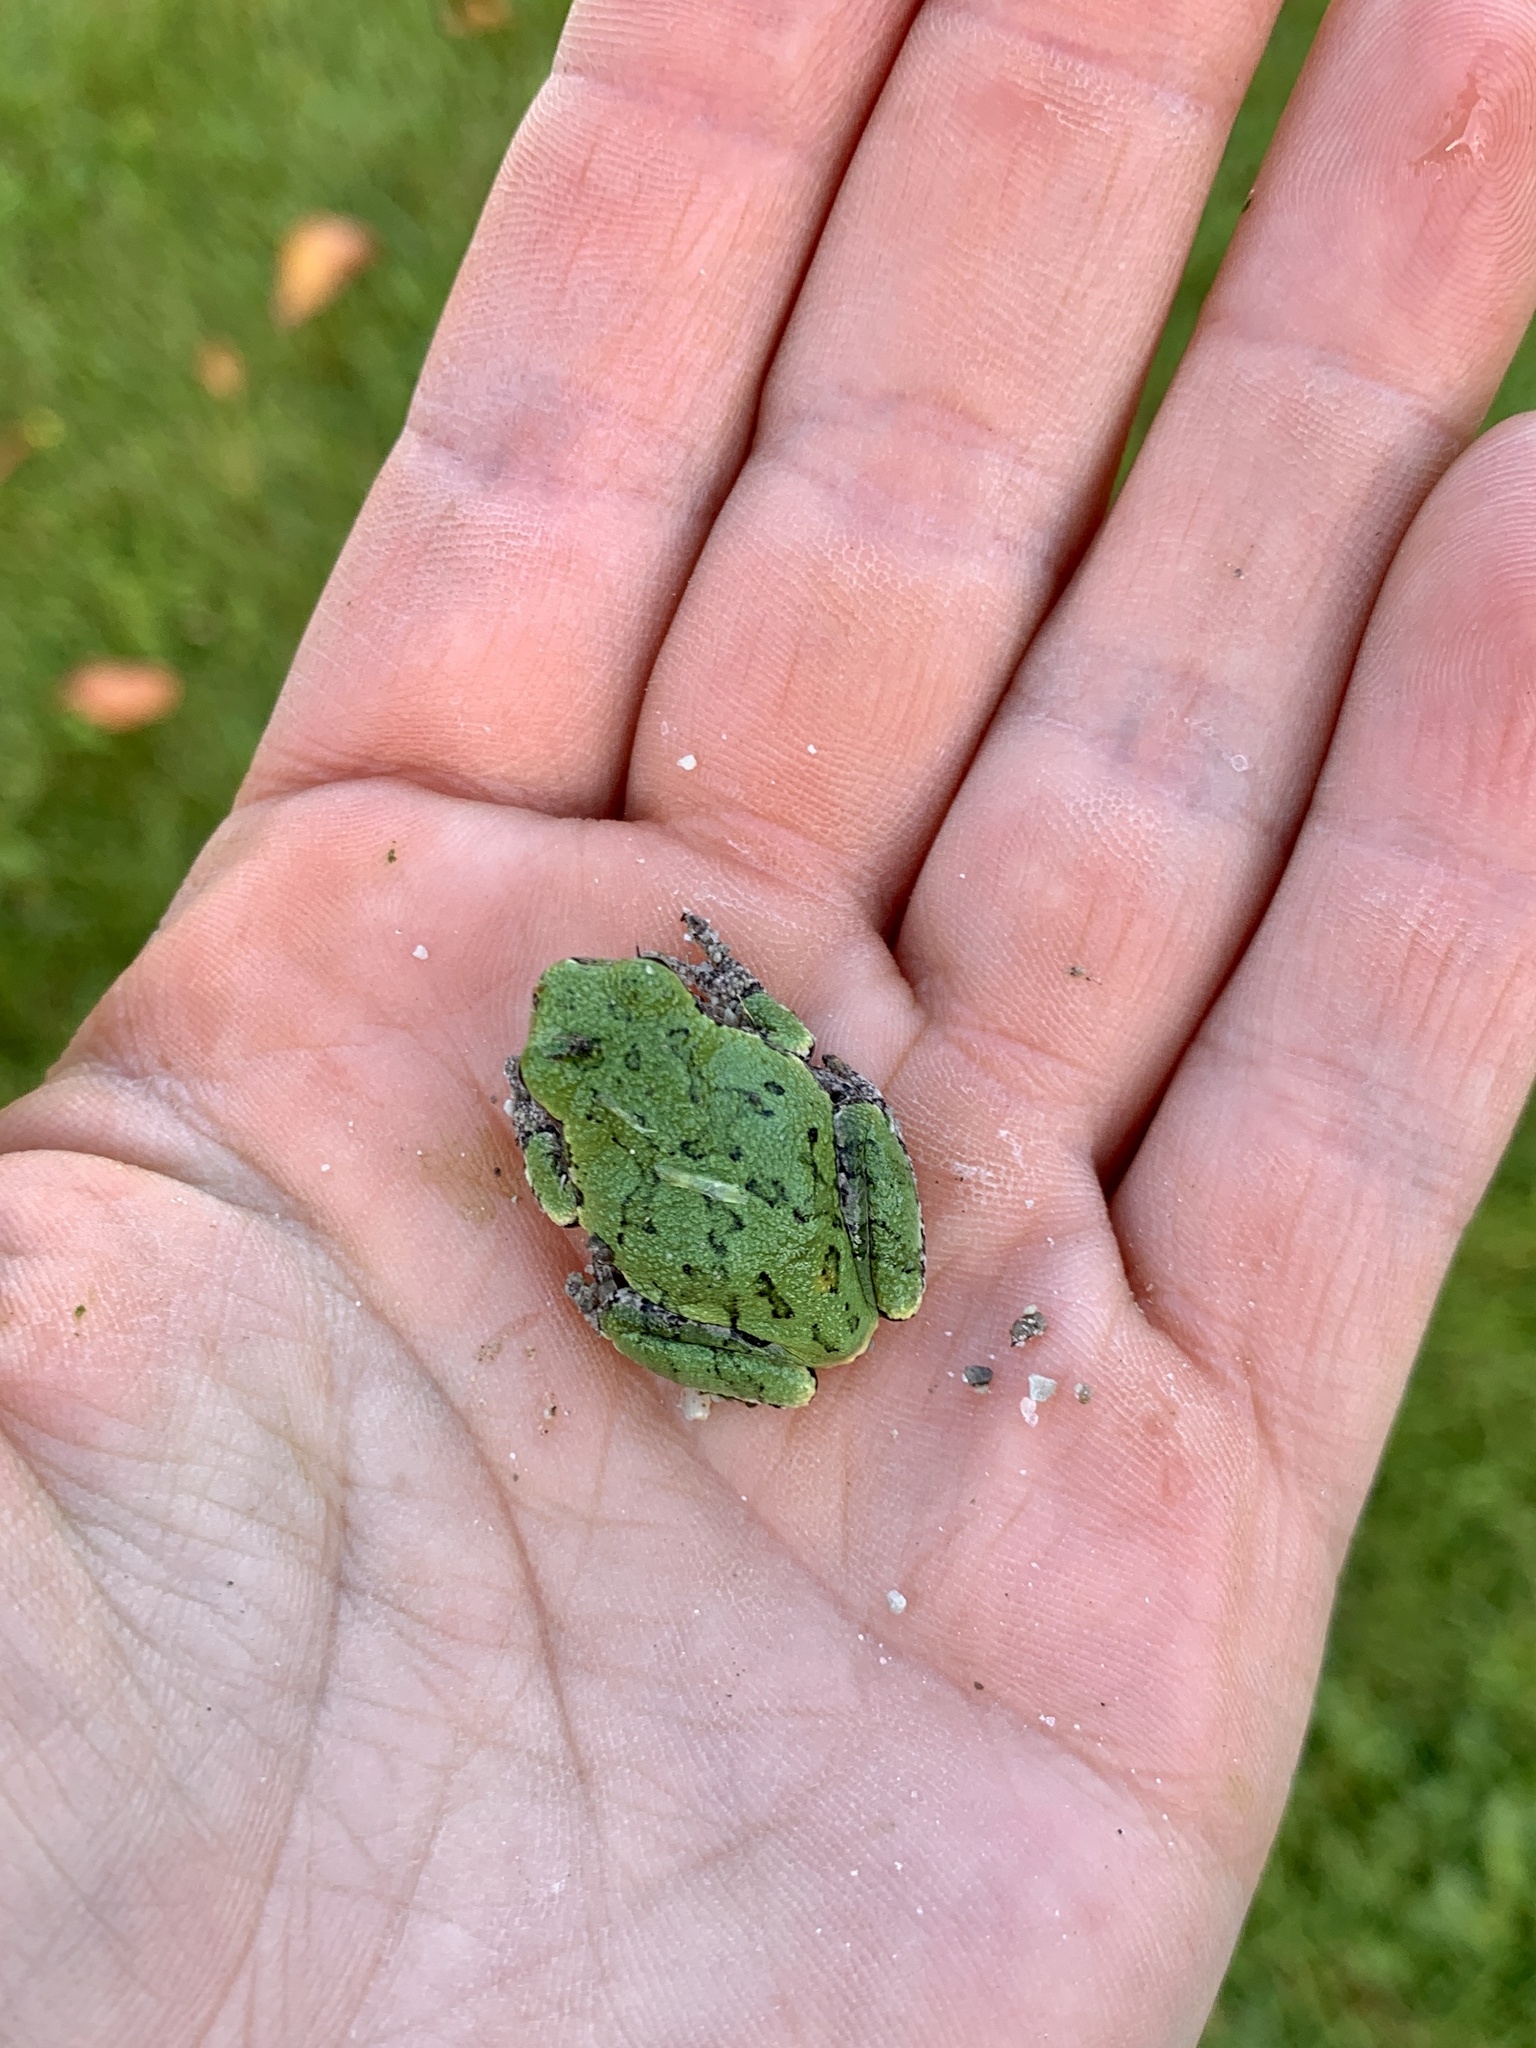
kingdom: Animalia
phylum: Chordata
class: Amphibia
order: Anura
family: Hylidae
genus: Dryophytes
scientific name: Dryophytes versicolor
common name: Gray treefrog
